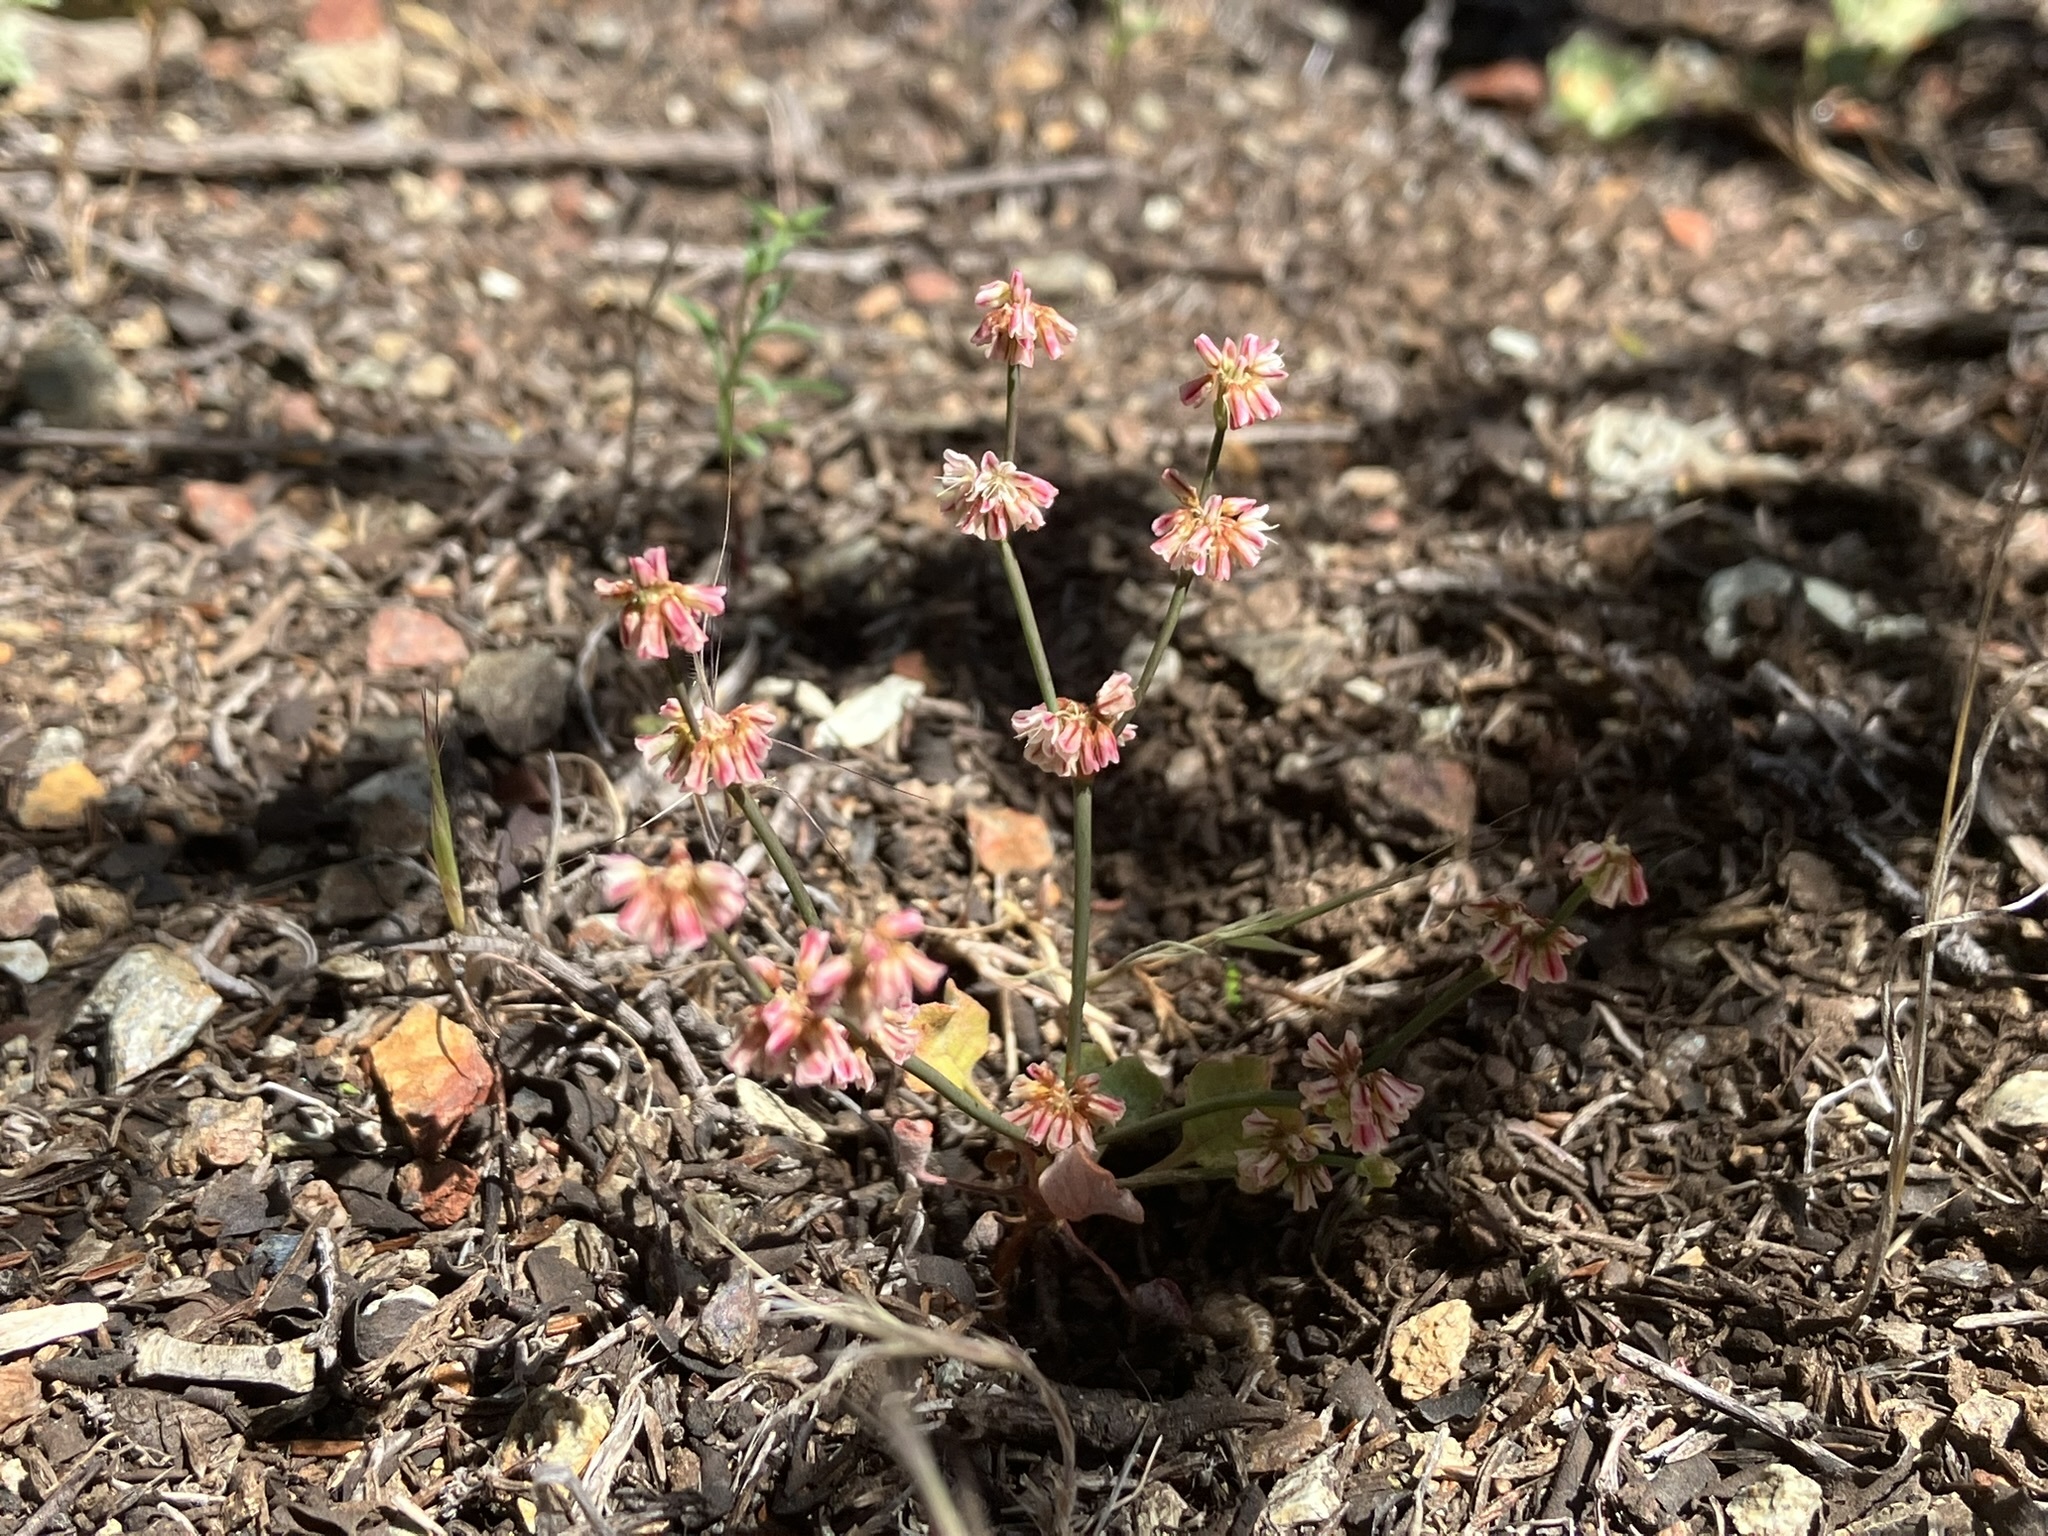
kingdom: Plantae
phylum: Tracheophyta
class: Magnoliopsida
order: Caryophyllales
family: Polygonaceae
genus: Eriogonum
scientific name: Eriogonum luteolum
